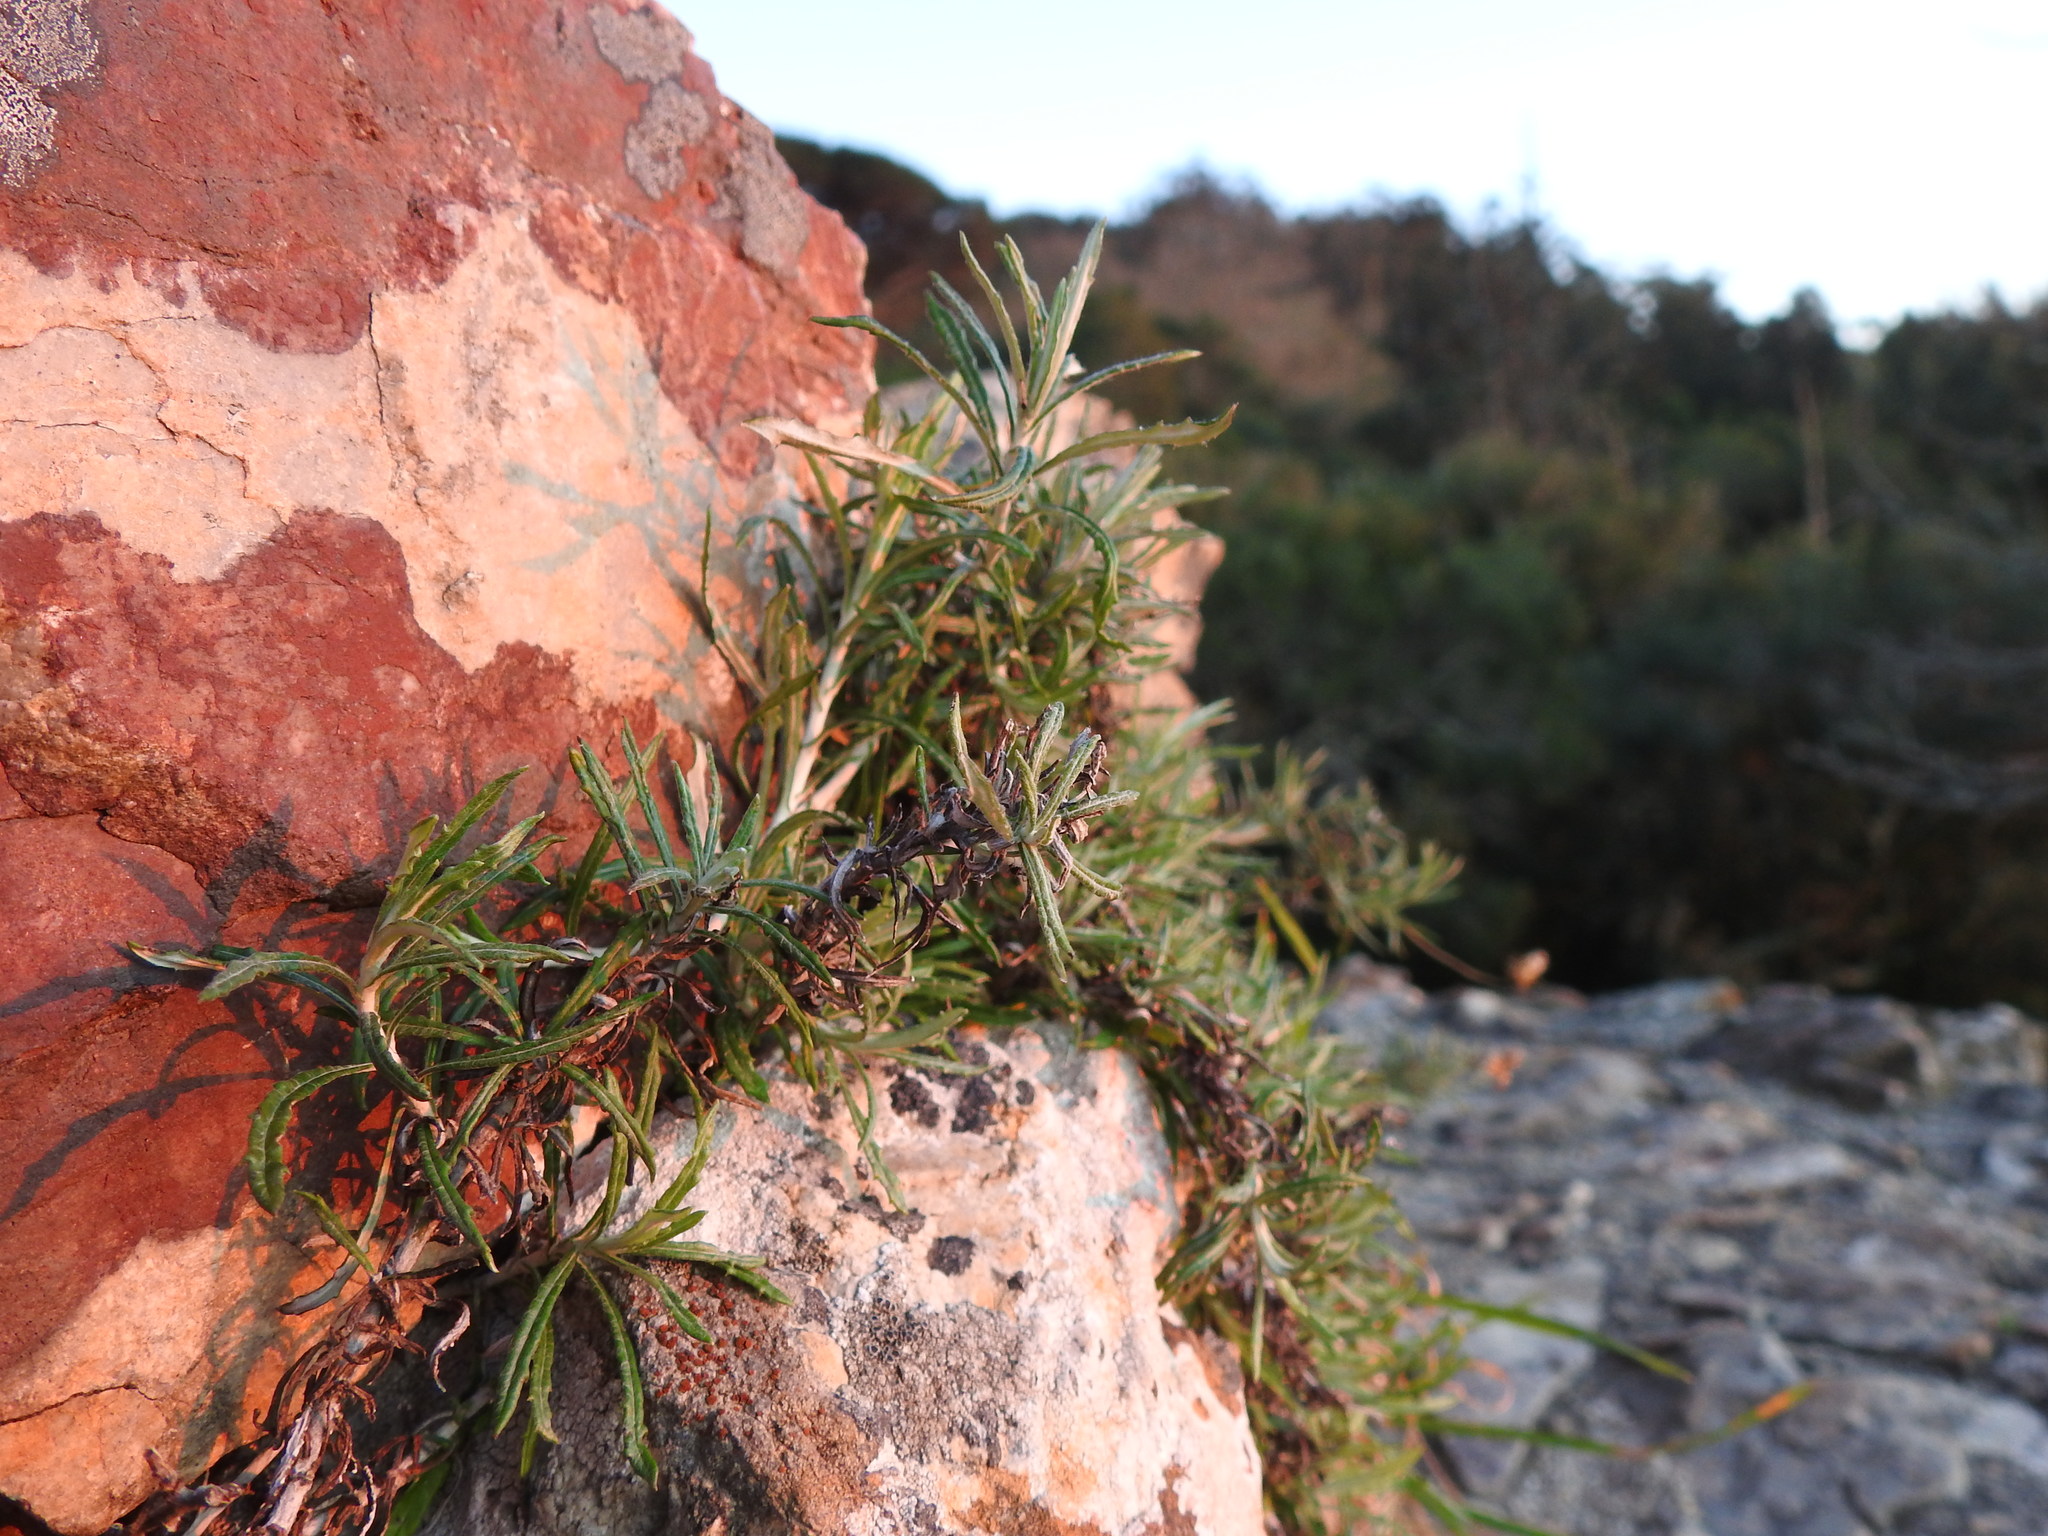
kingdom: Plantae
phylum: Tracheophyta
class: Magnoliopsida
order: Asterales
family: Asteraceae
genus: Phagnalon
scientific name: Phagnalon saxatile
